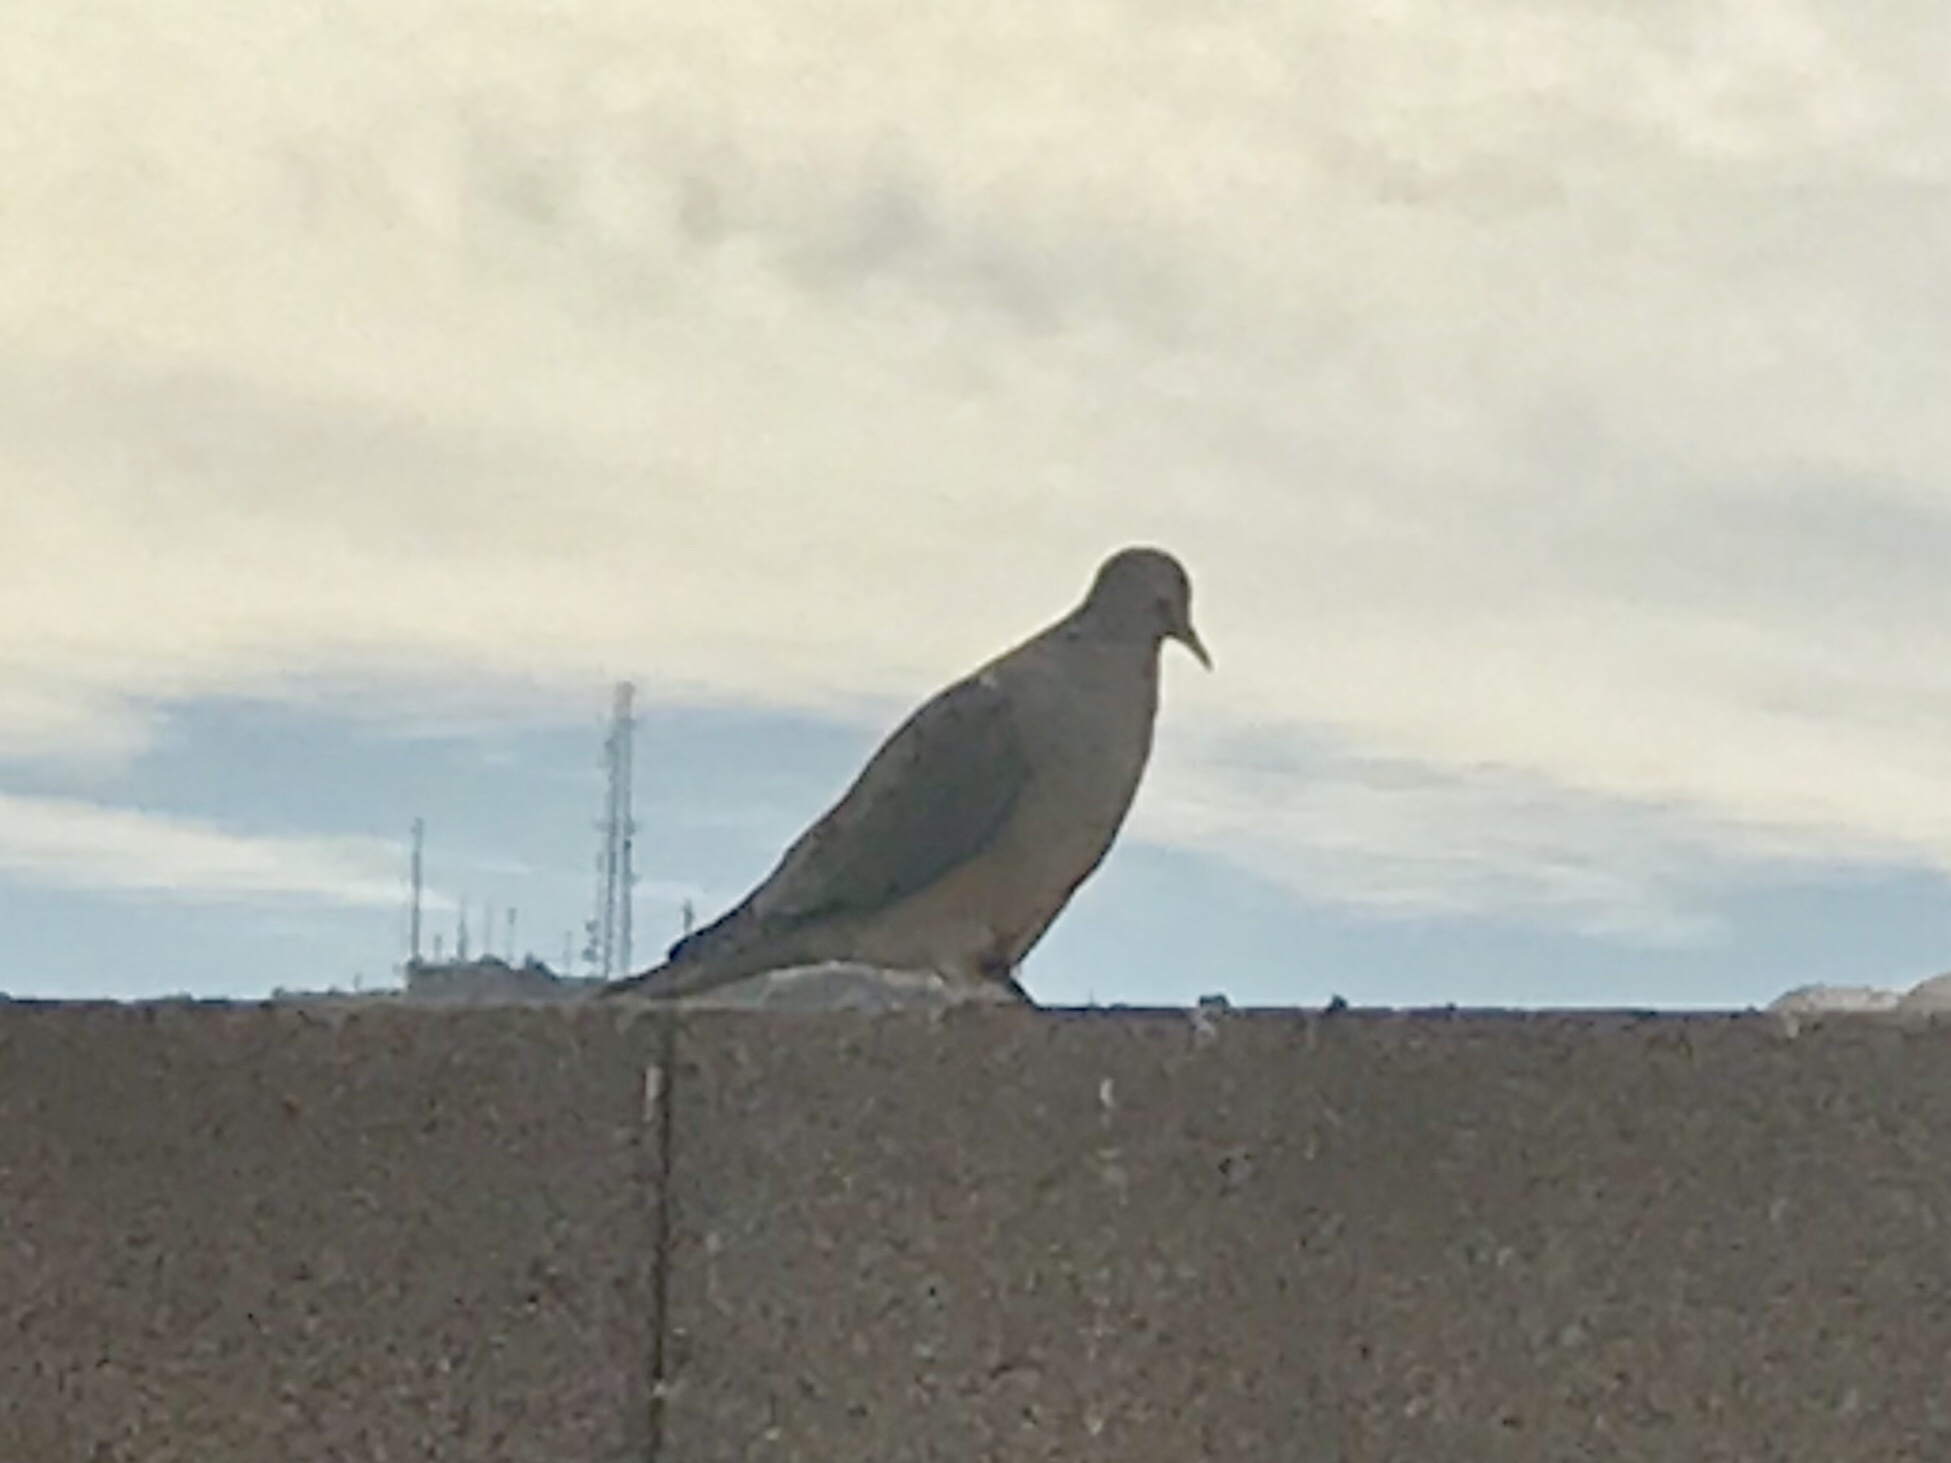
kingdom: Animalia
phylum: Chordata
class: Aves
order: Columbiformes
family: Columbidae
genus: Zenaida
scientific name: Zenaida macroura
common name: Mourning dove
